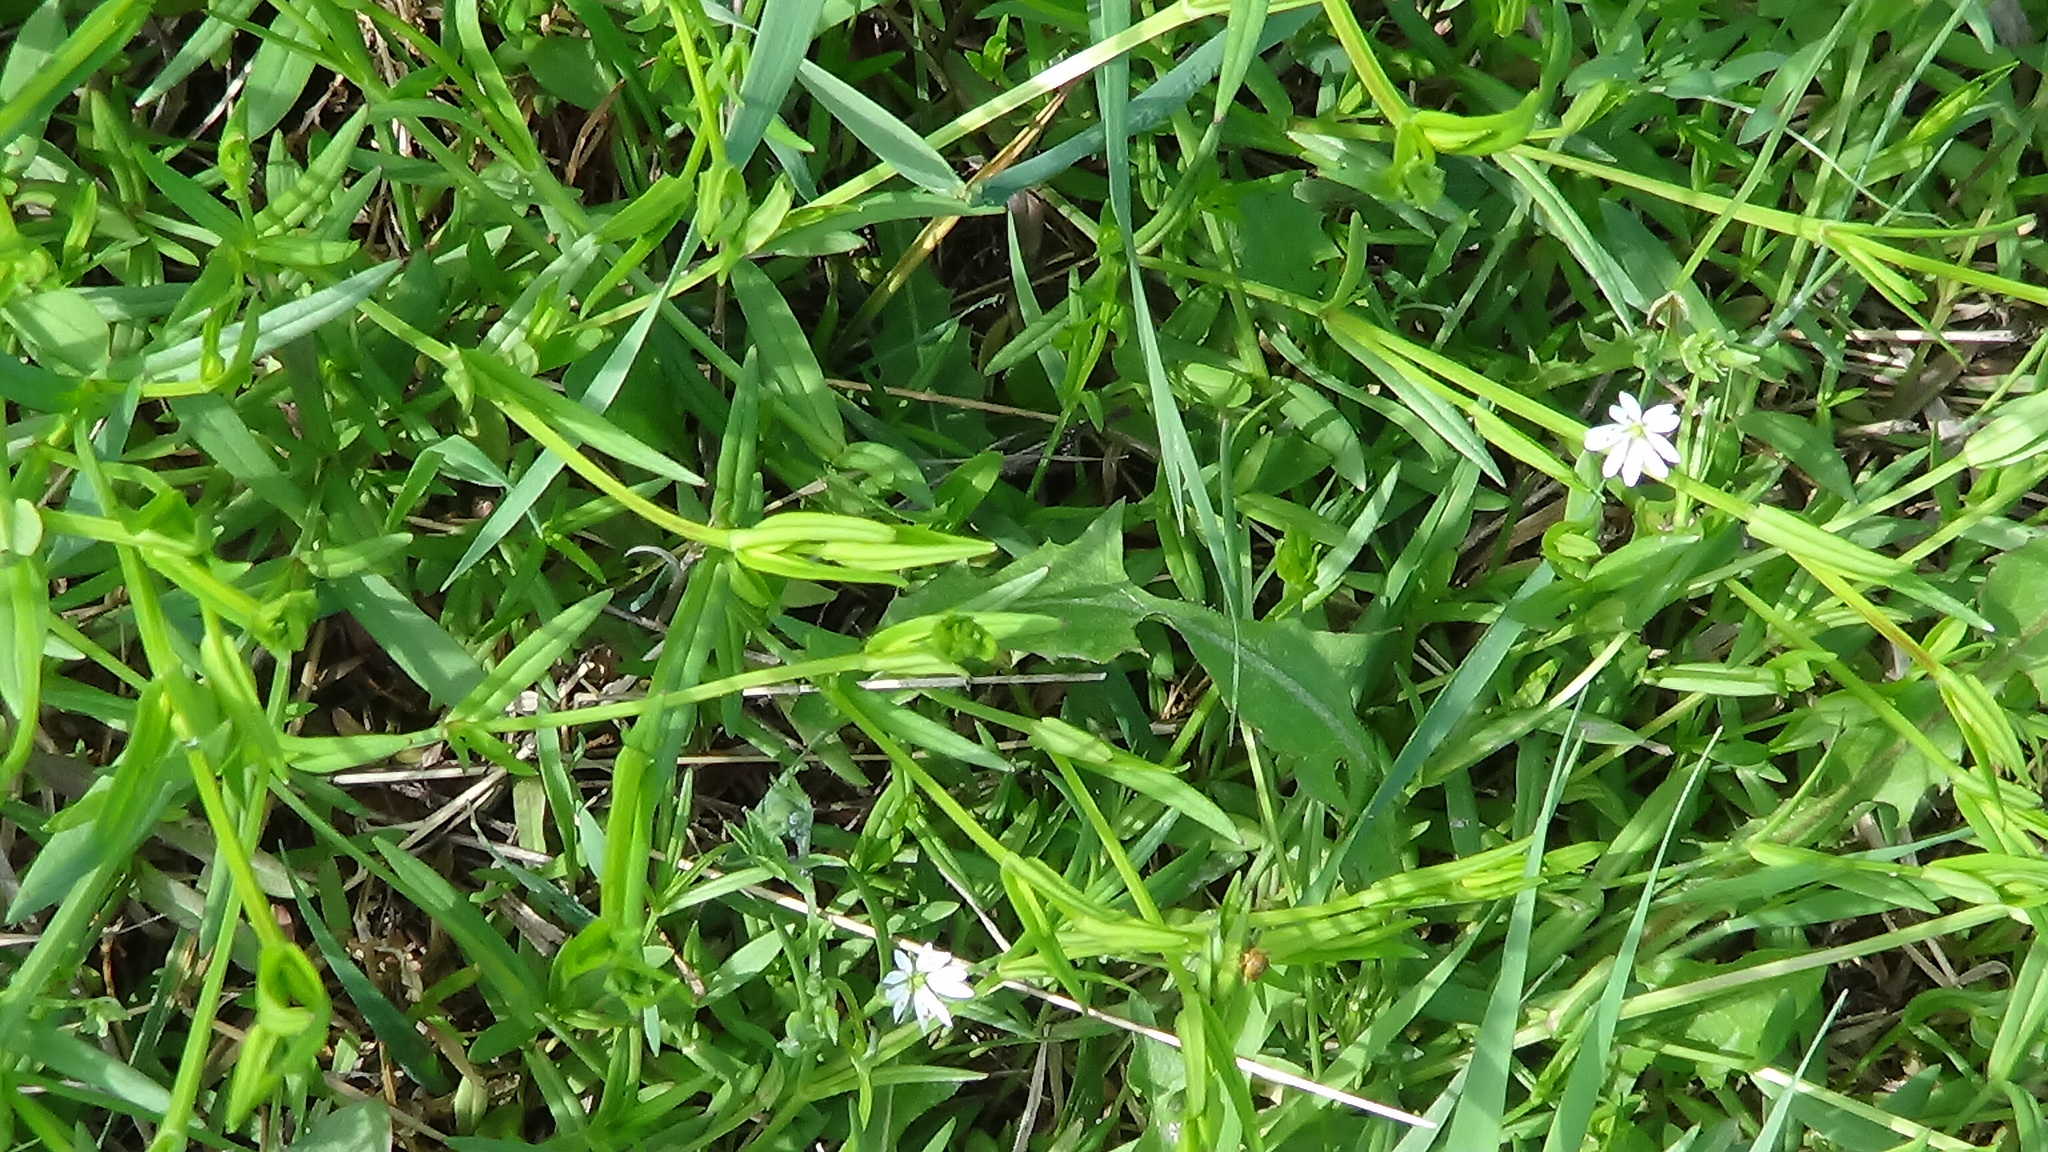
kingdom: Plantae
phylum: Tracheophyta
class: Magnoliopsida
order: Caryophyllales
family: Caryophyllaceae
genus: Stellaria
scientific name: Stellaria graminea
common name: Grass-like starwort
